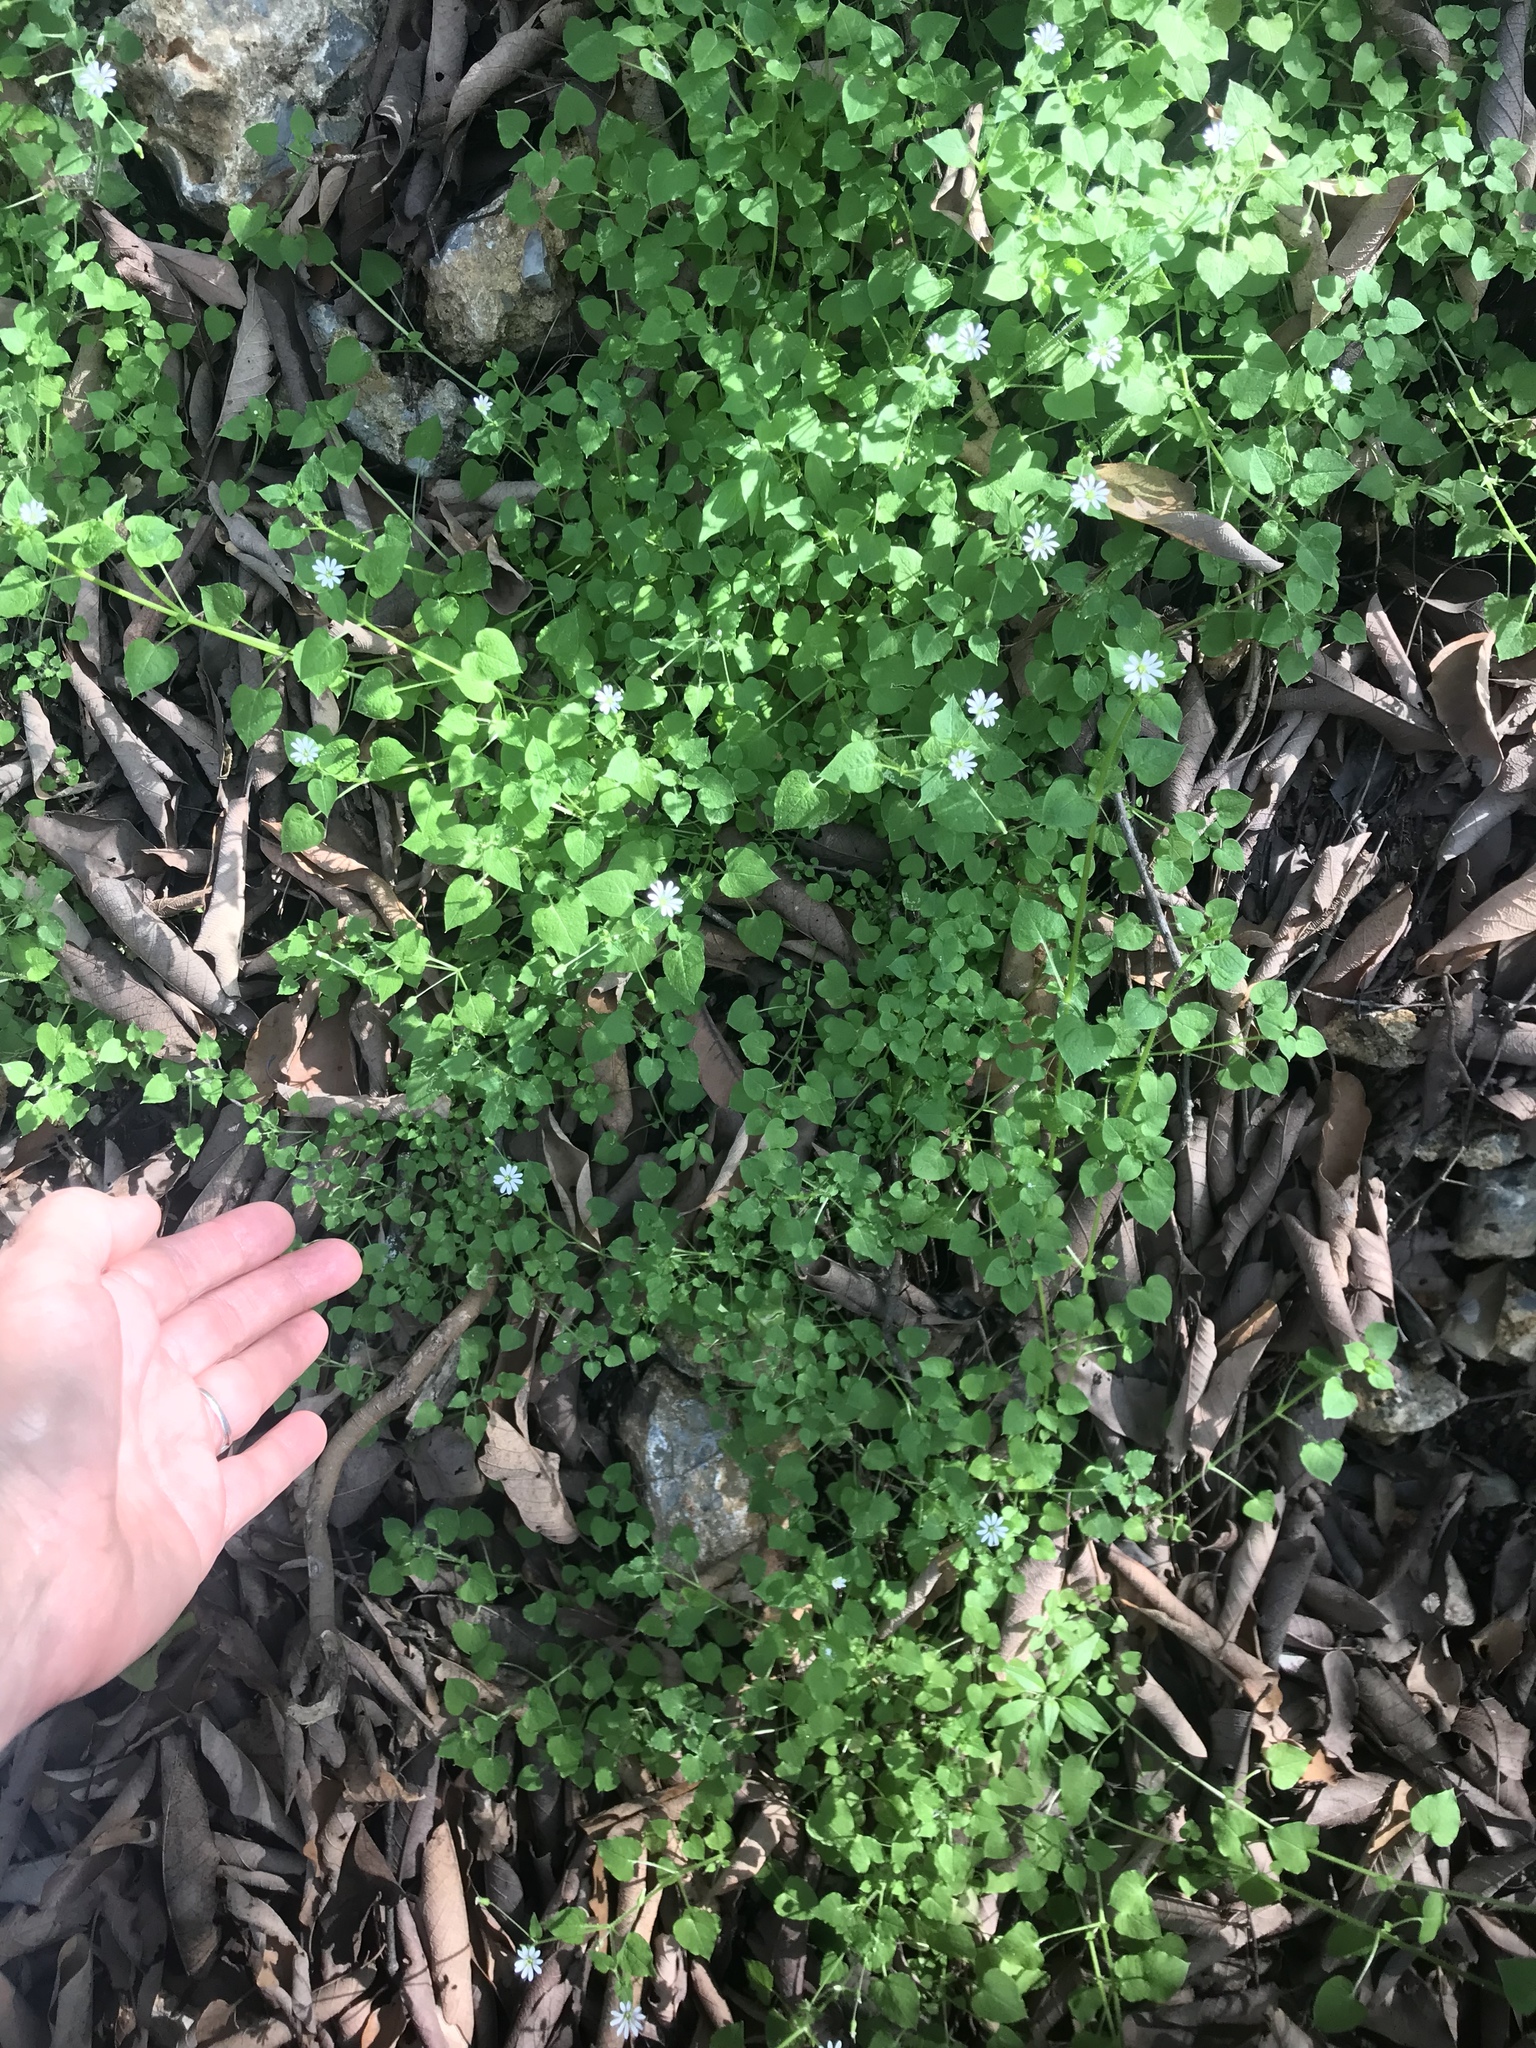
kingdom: Plantae
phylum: Tracheophyta
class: Magnoliopsida
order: Caryophyllales
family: Caryophyllaceae
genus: Stellaria
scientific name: Stellaria cuspidata
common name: Mexican chickweed
